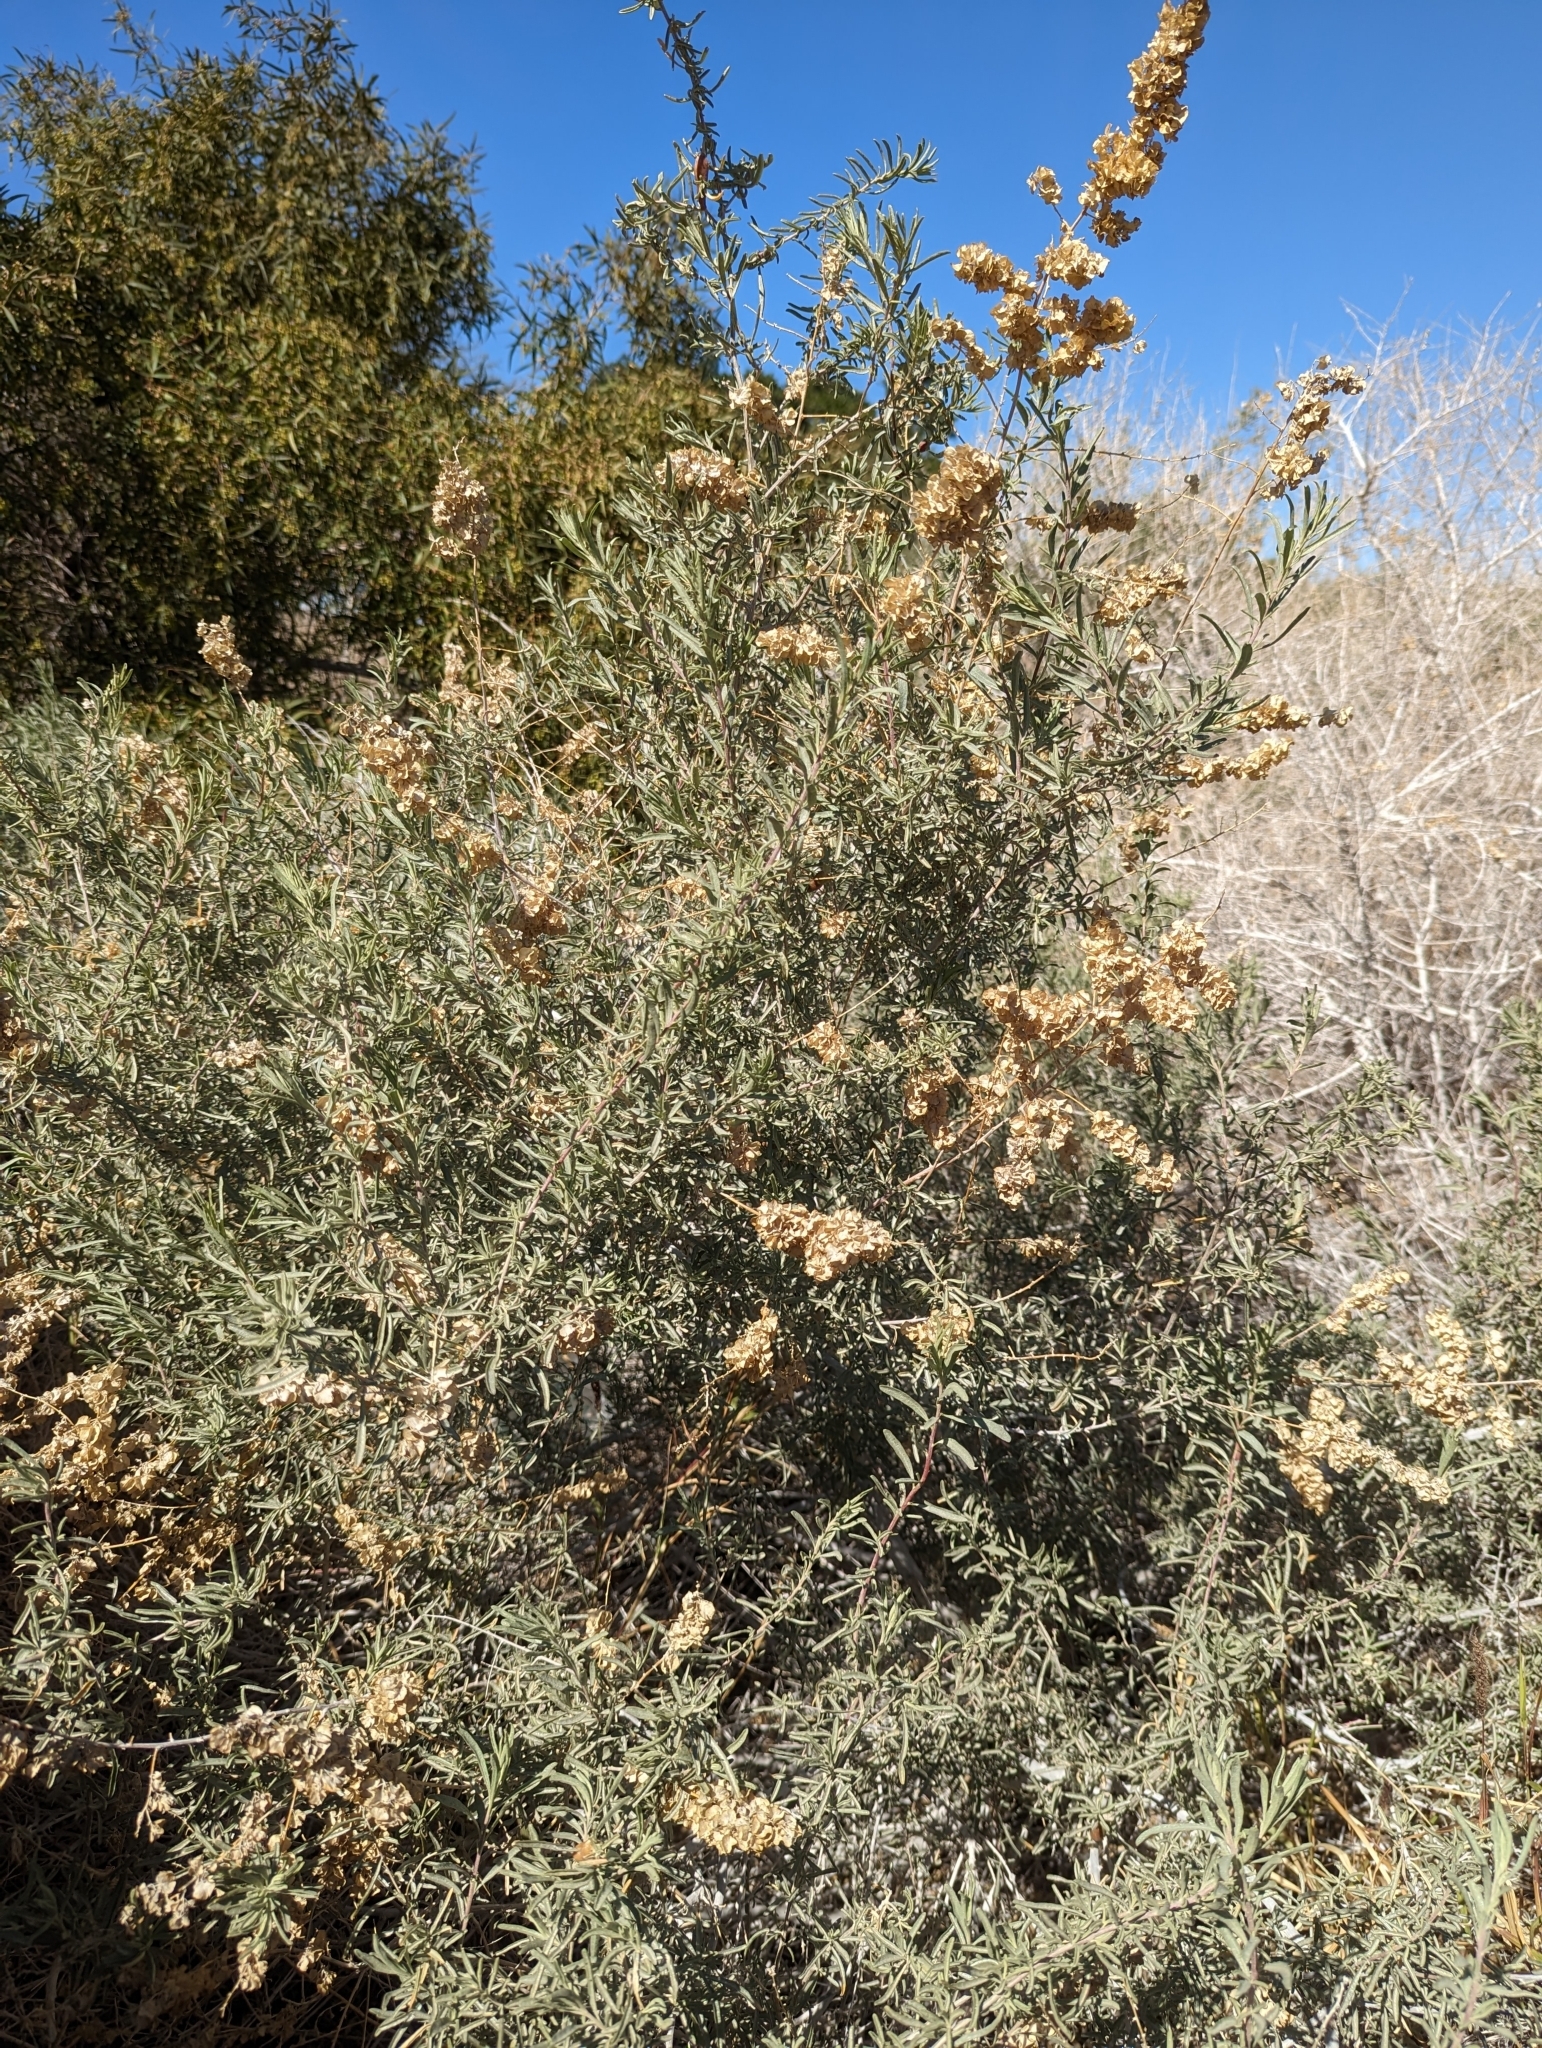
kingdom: Plantae
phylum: Tracheophyta
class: Magnoliopsida
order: Caryophyllales
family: Amaranthaceae
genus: Atriplex
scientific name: Atriplex canescens
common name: Four-wing saltbush
